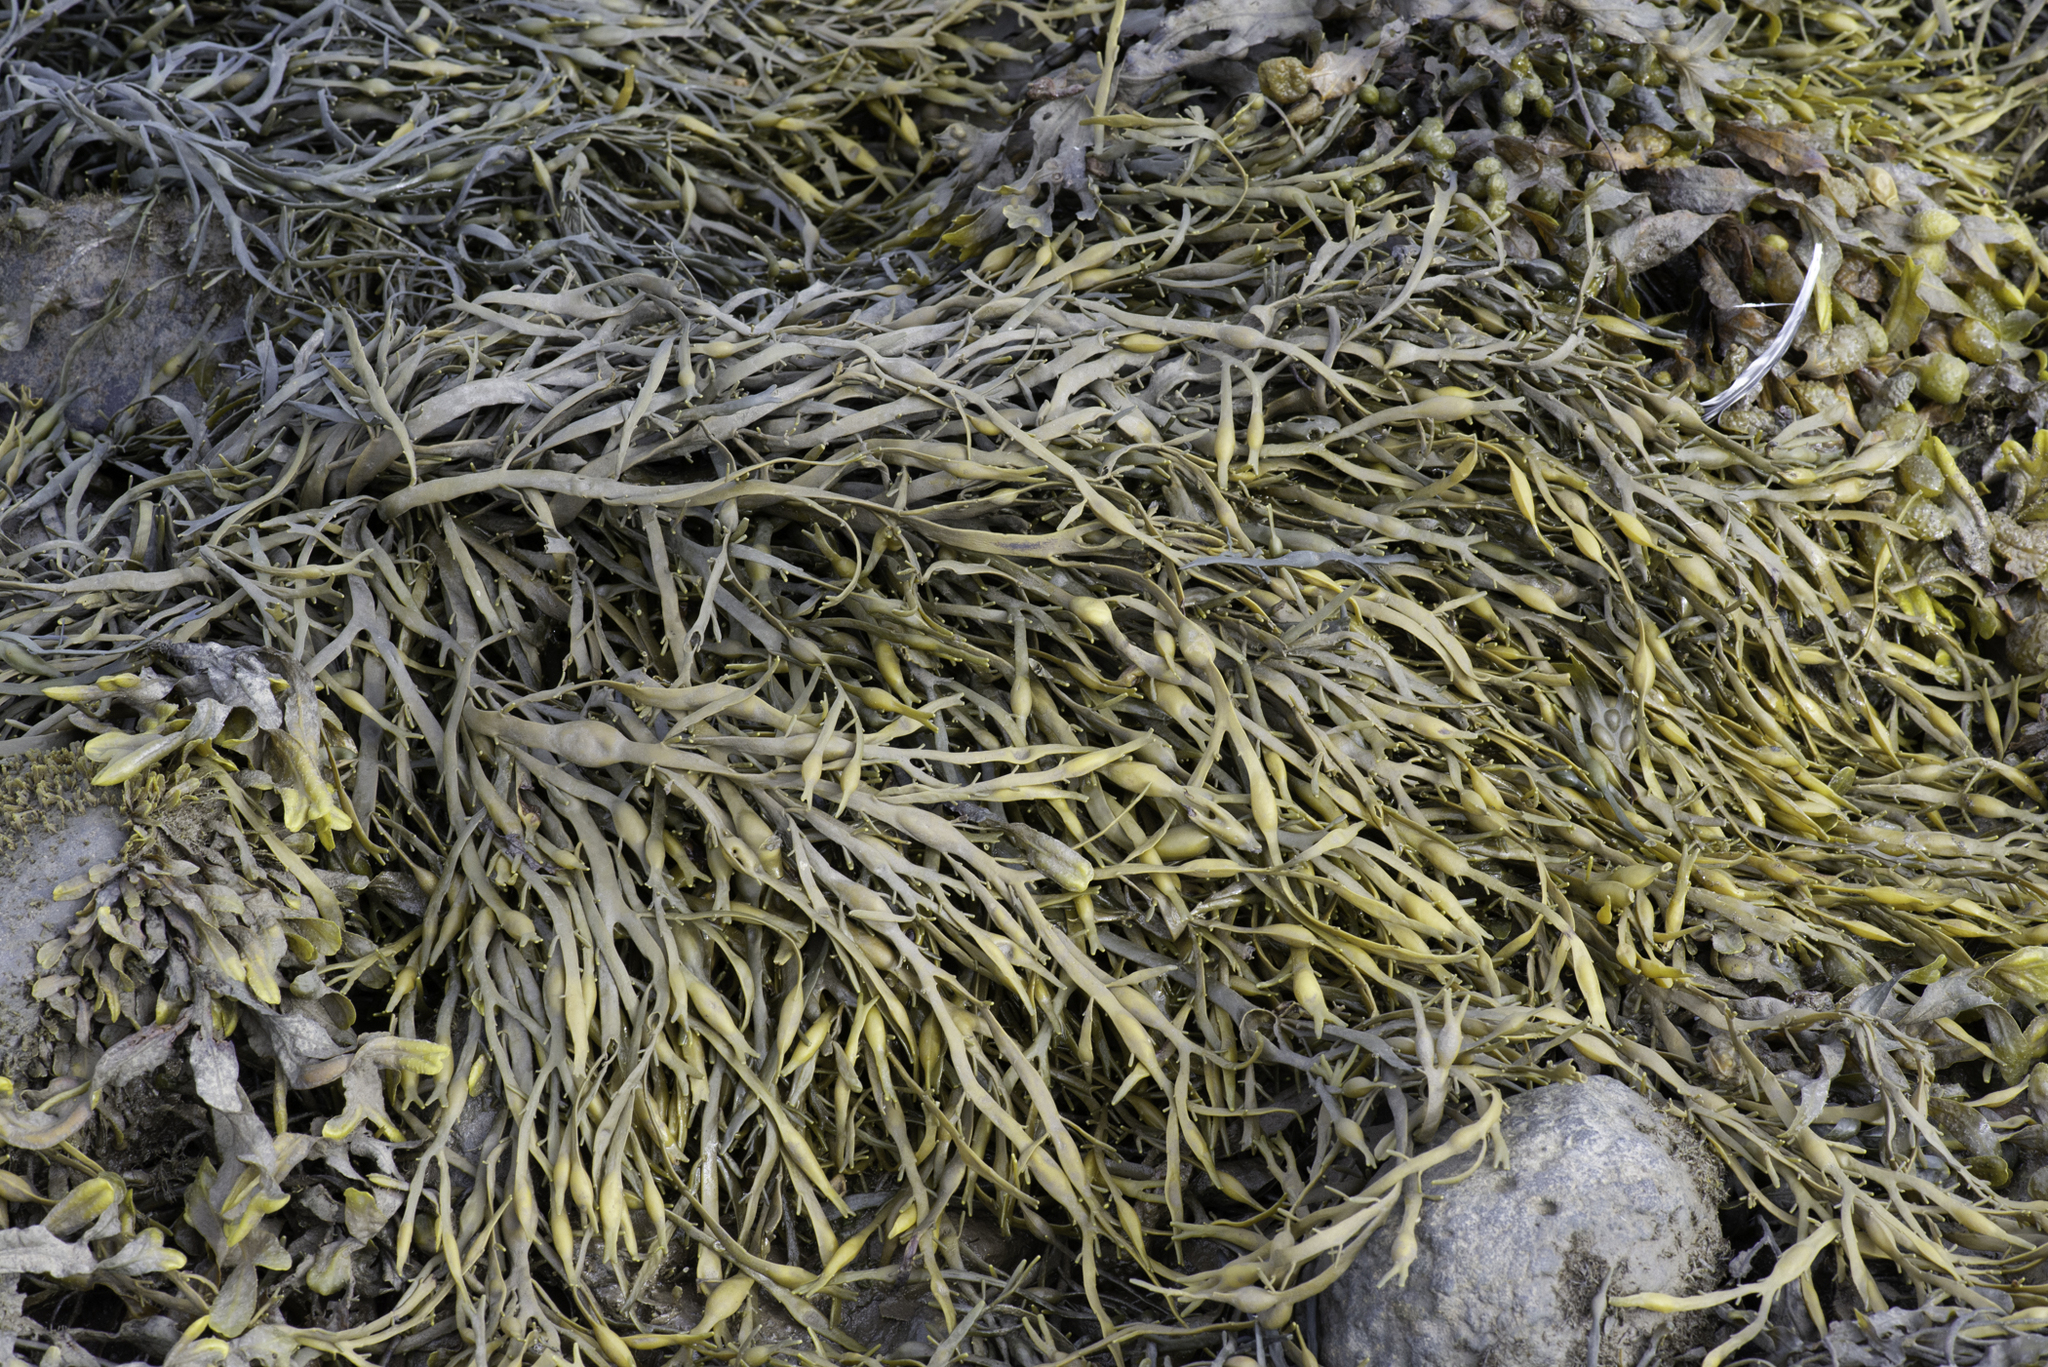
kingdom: Chromista
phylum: Ochrophyta
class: Phaeophyceae
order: Fucales
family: Fucaceae
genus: Ascophyllum
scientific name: Ascophyllum nodosum
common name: Knotted wrack
